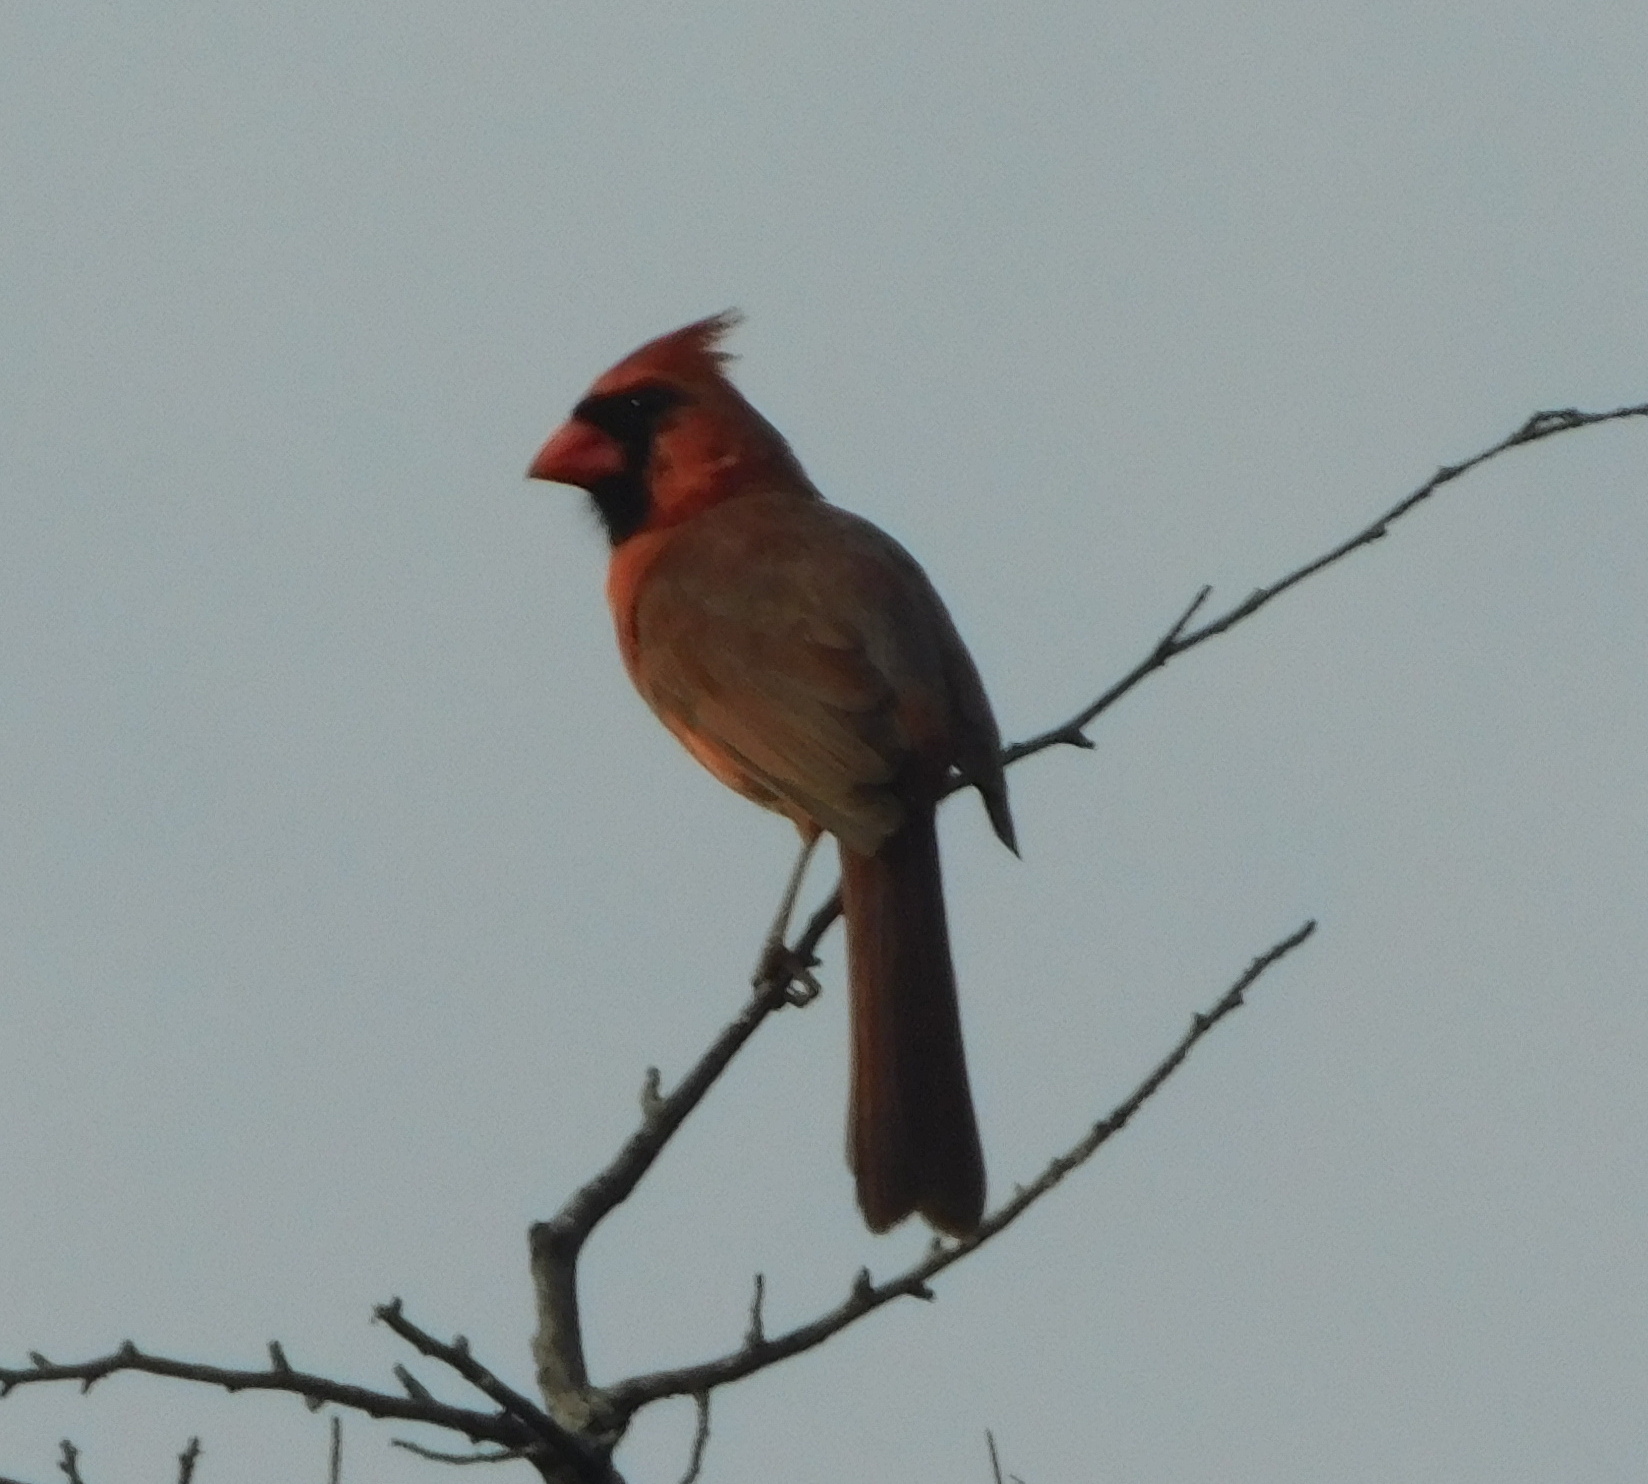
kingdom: Animalia
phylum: Chordata
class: Aves
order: Passeriformes
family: Cardinalidae
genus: Cardinalis
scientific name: Cardinalis cardinalis
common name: Northern cardinal
